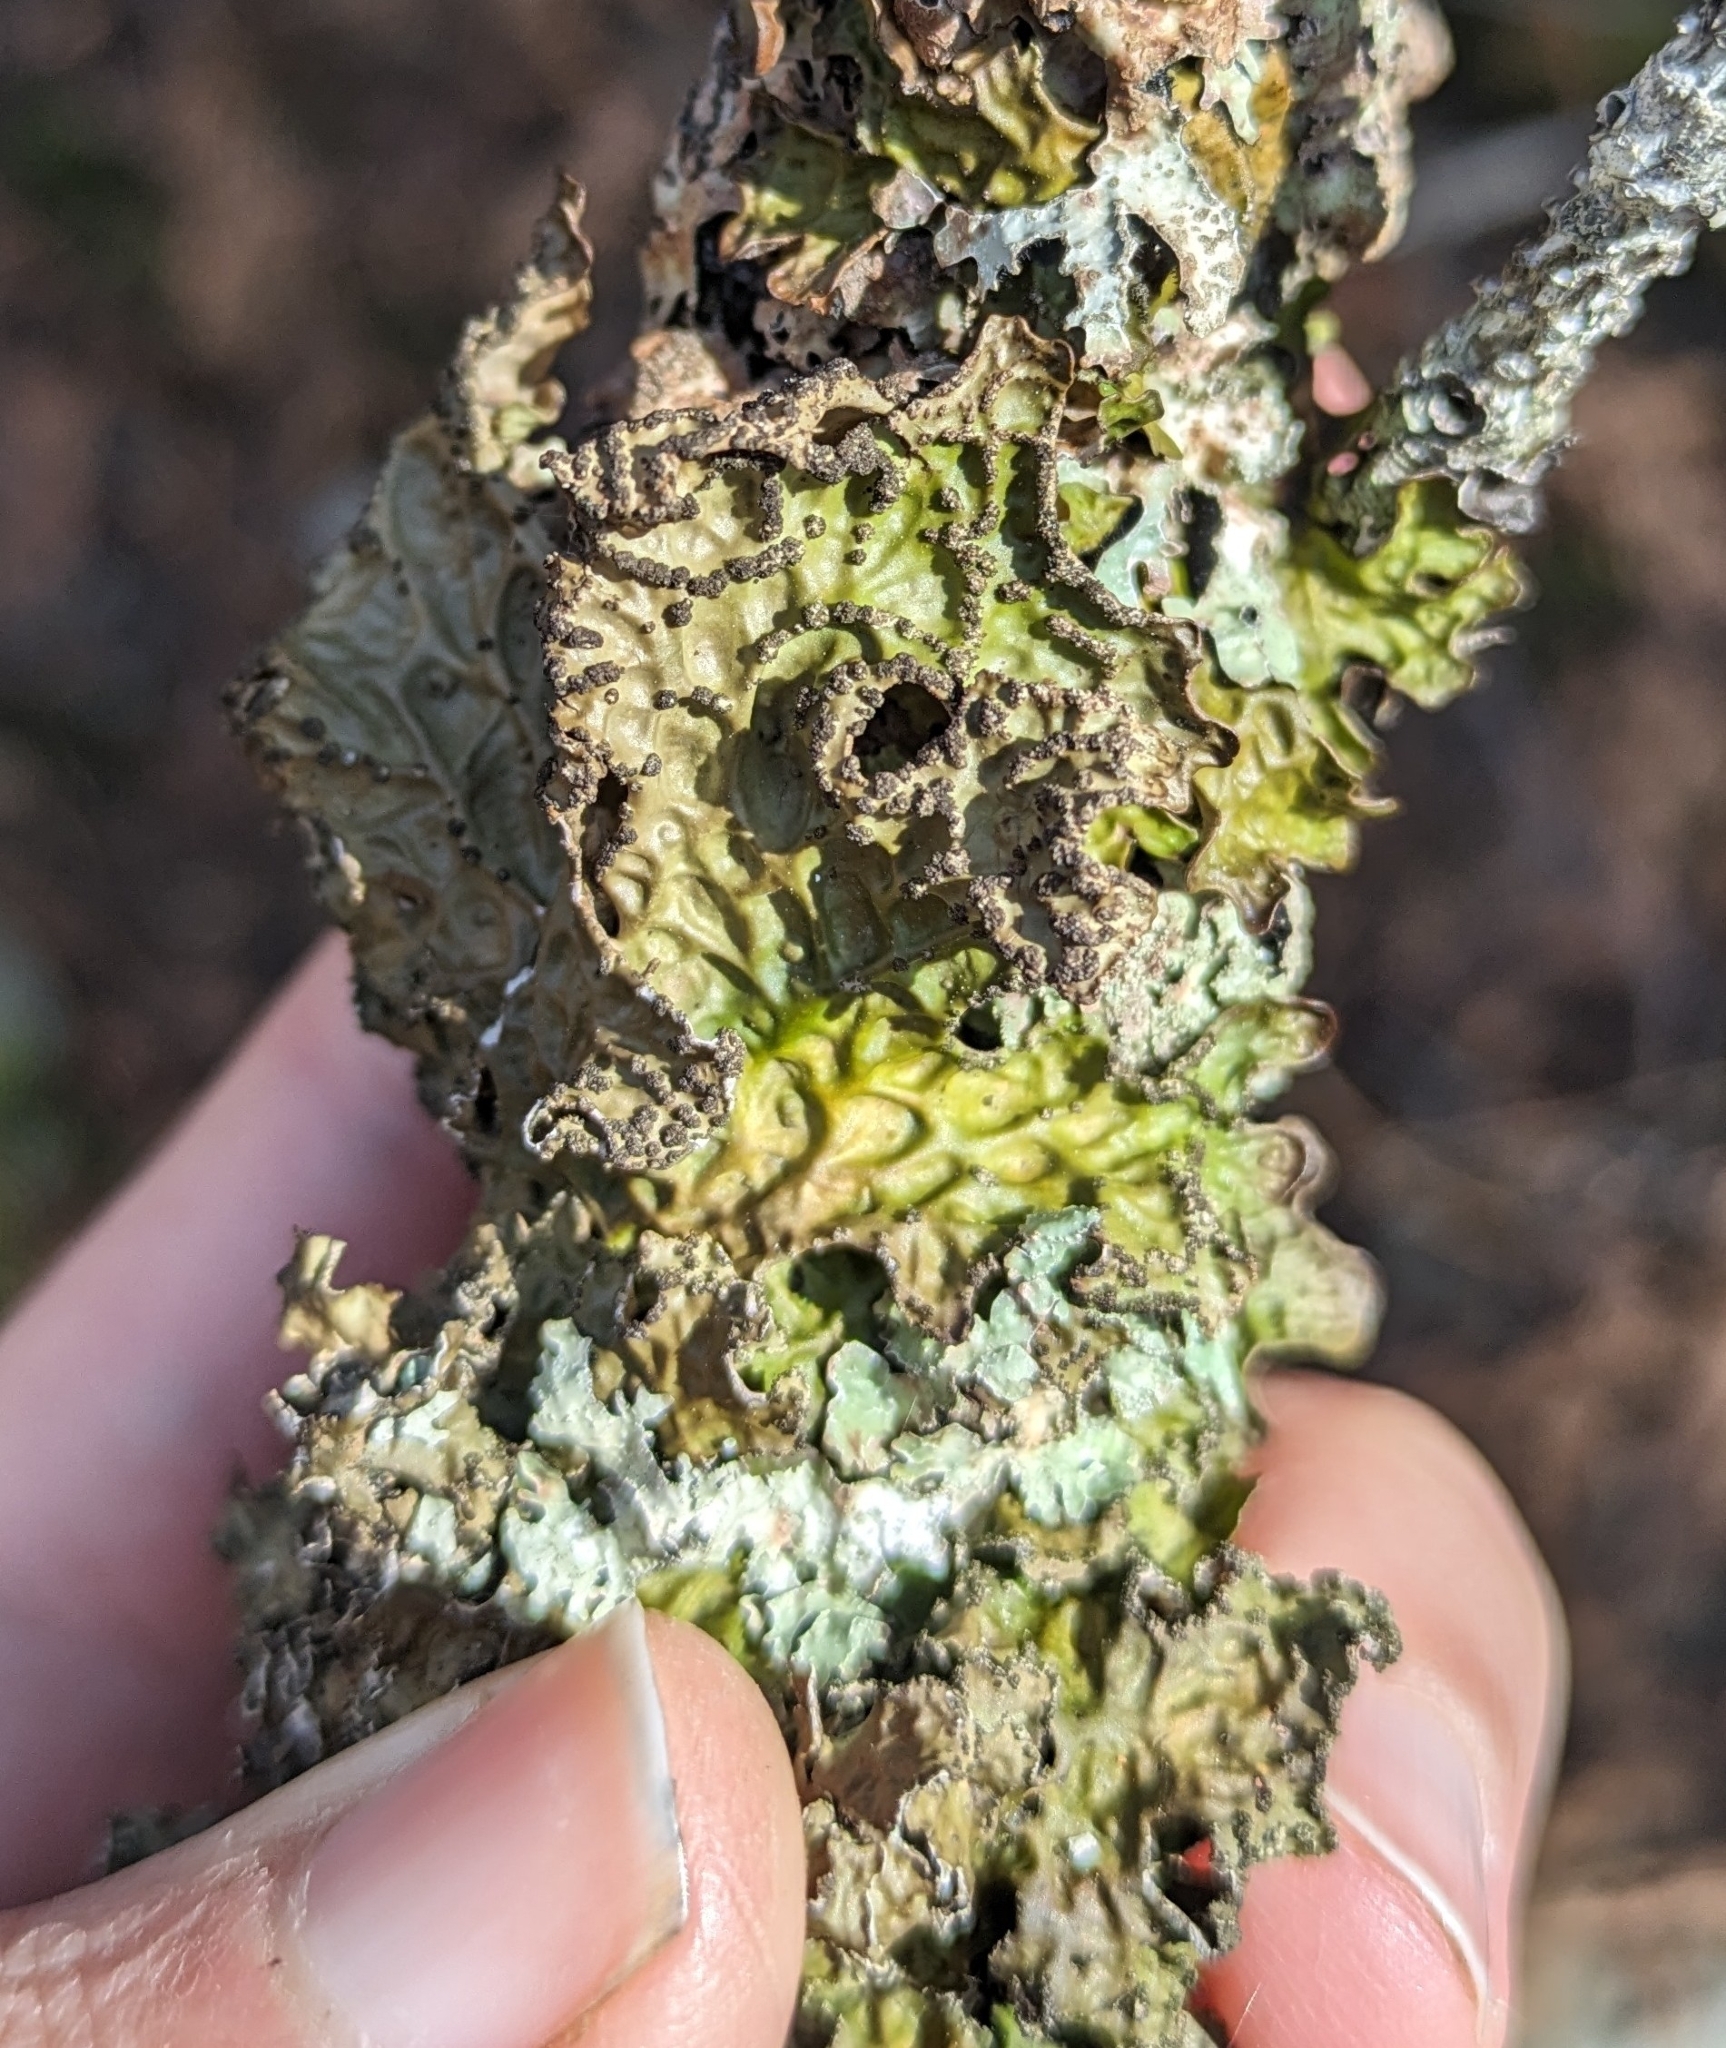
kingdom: Fungi
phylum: Ascomycota
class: Lecanoromycetes
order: Peltigerales
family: Lobariaceae
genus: Lobaria
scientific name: Lobaria pulmonaria
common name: Lungwort
